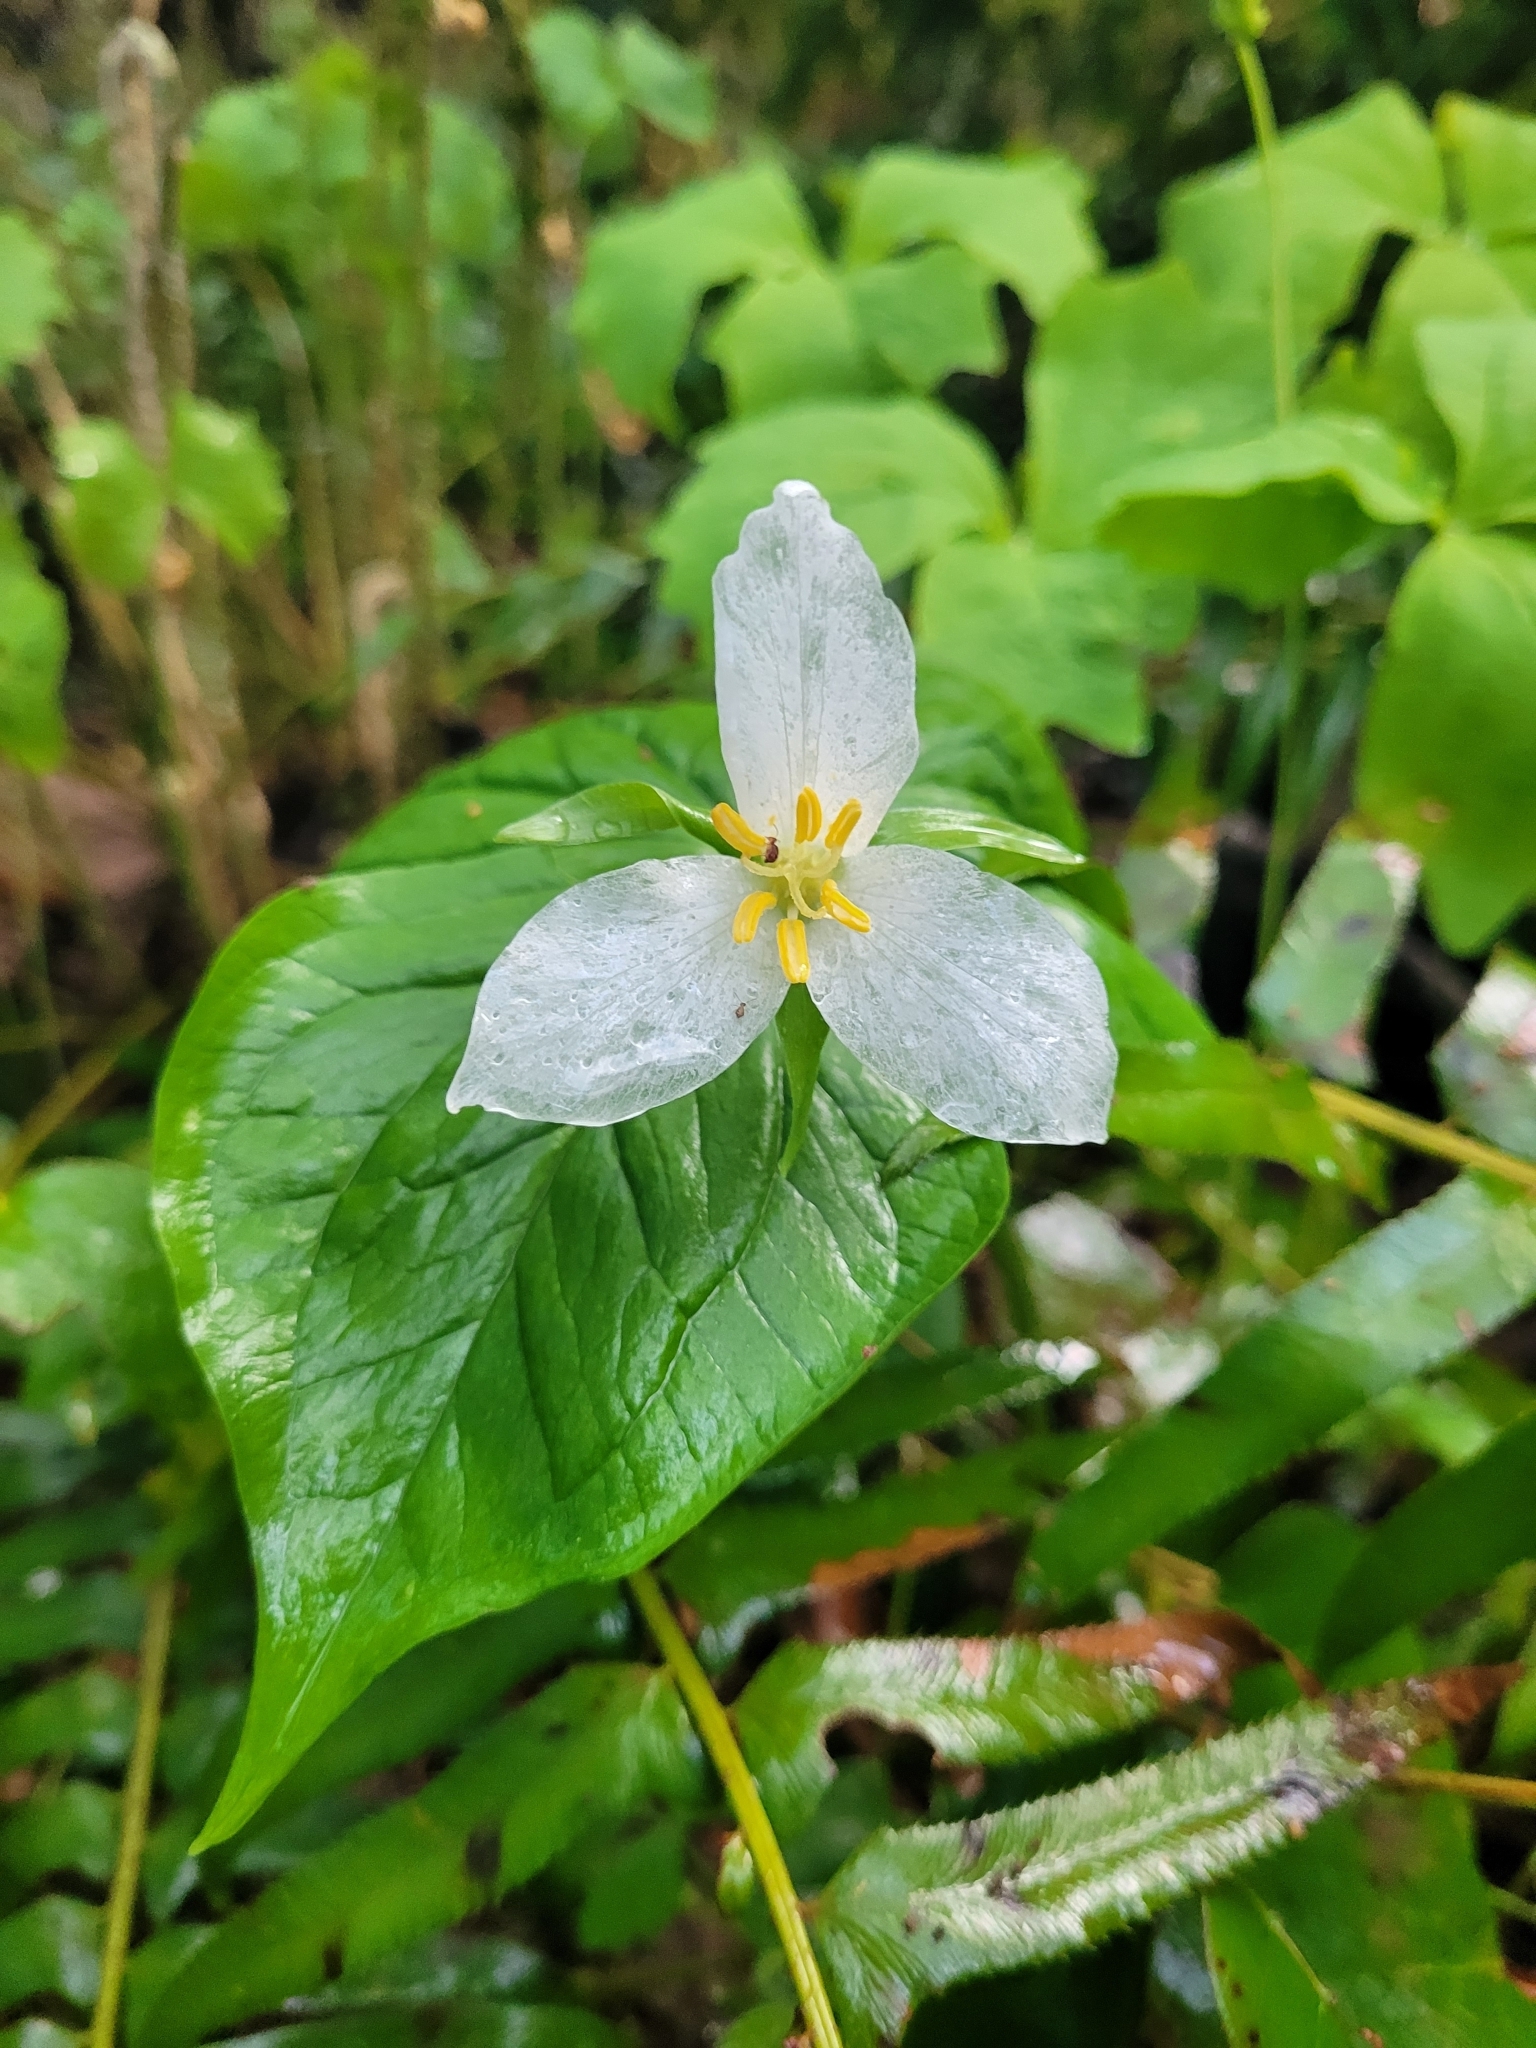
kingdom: Plantae
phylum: Tracheophyta
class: Liliopsida
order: Liliales
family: Melanthiaceae
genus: Trillium
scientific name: Trillium ovatum
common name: Pacific trillium
